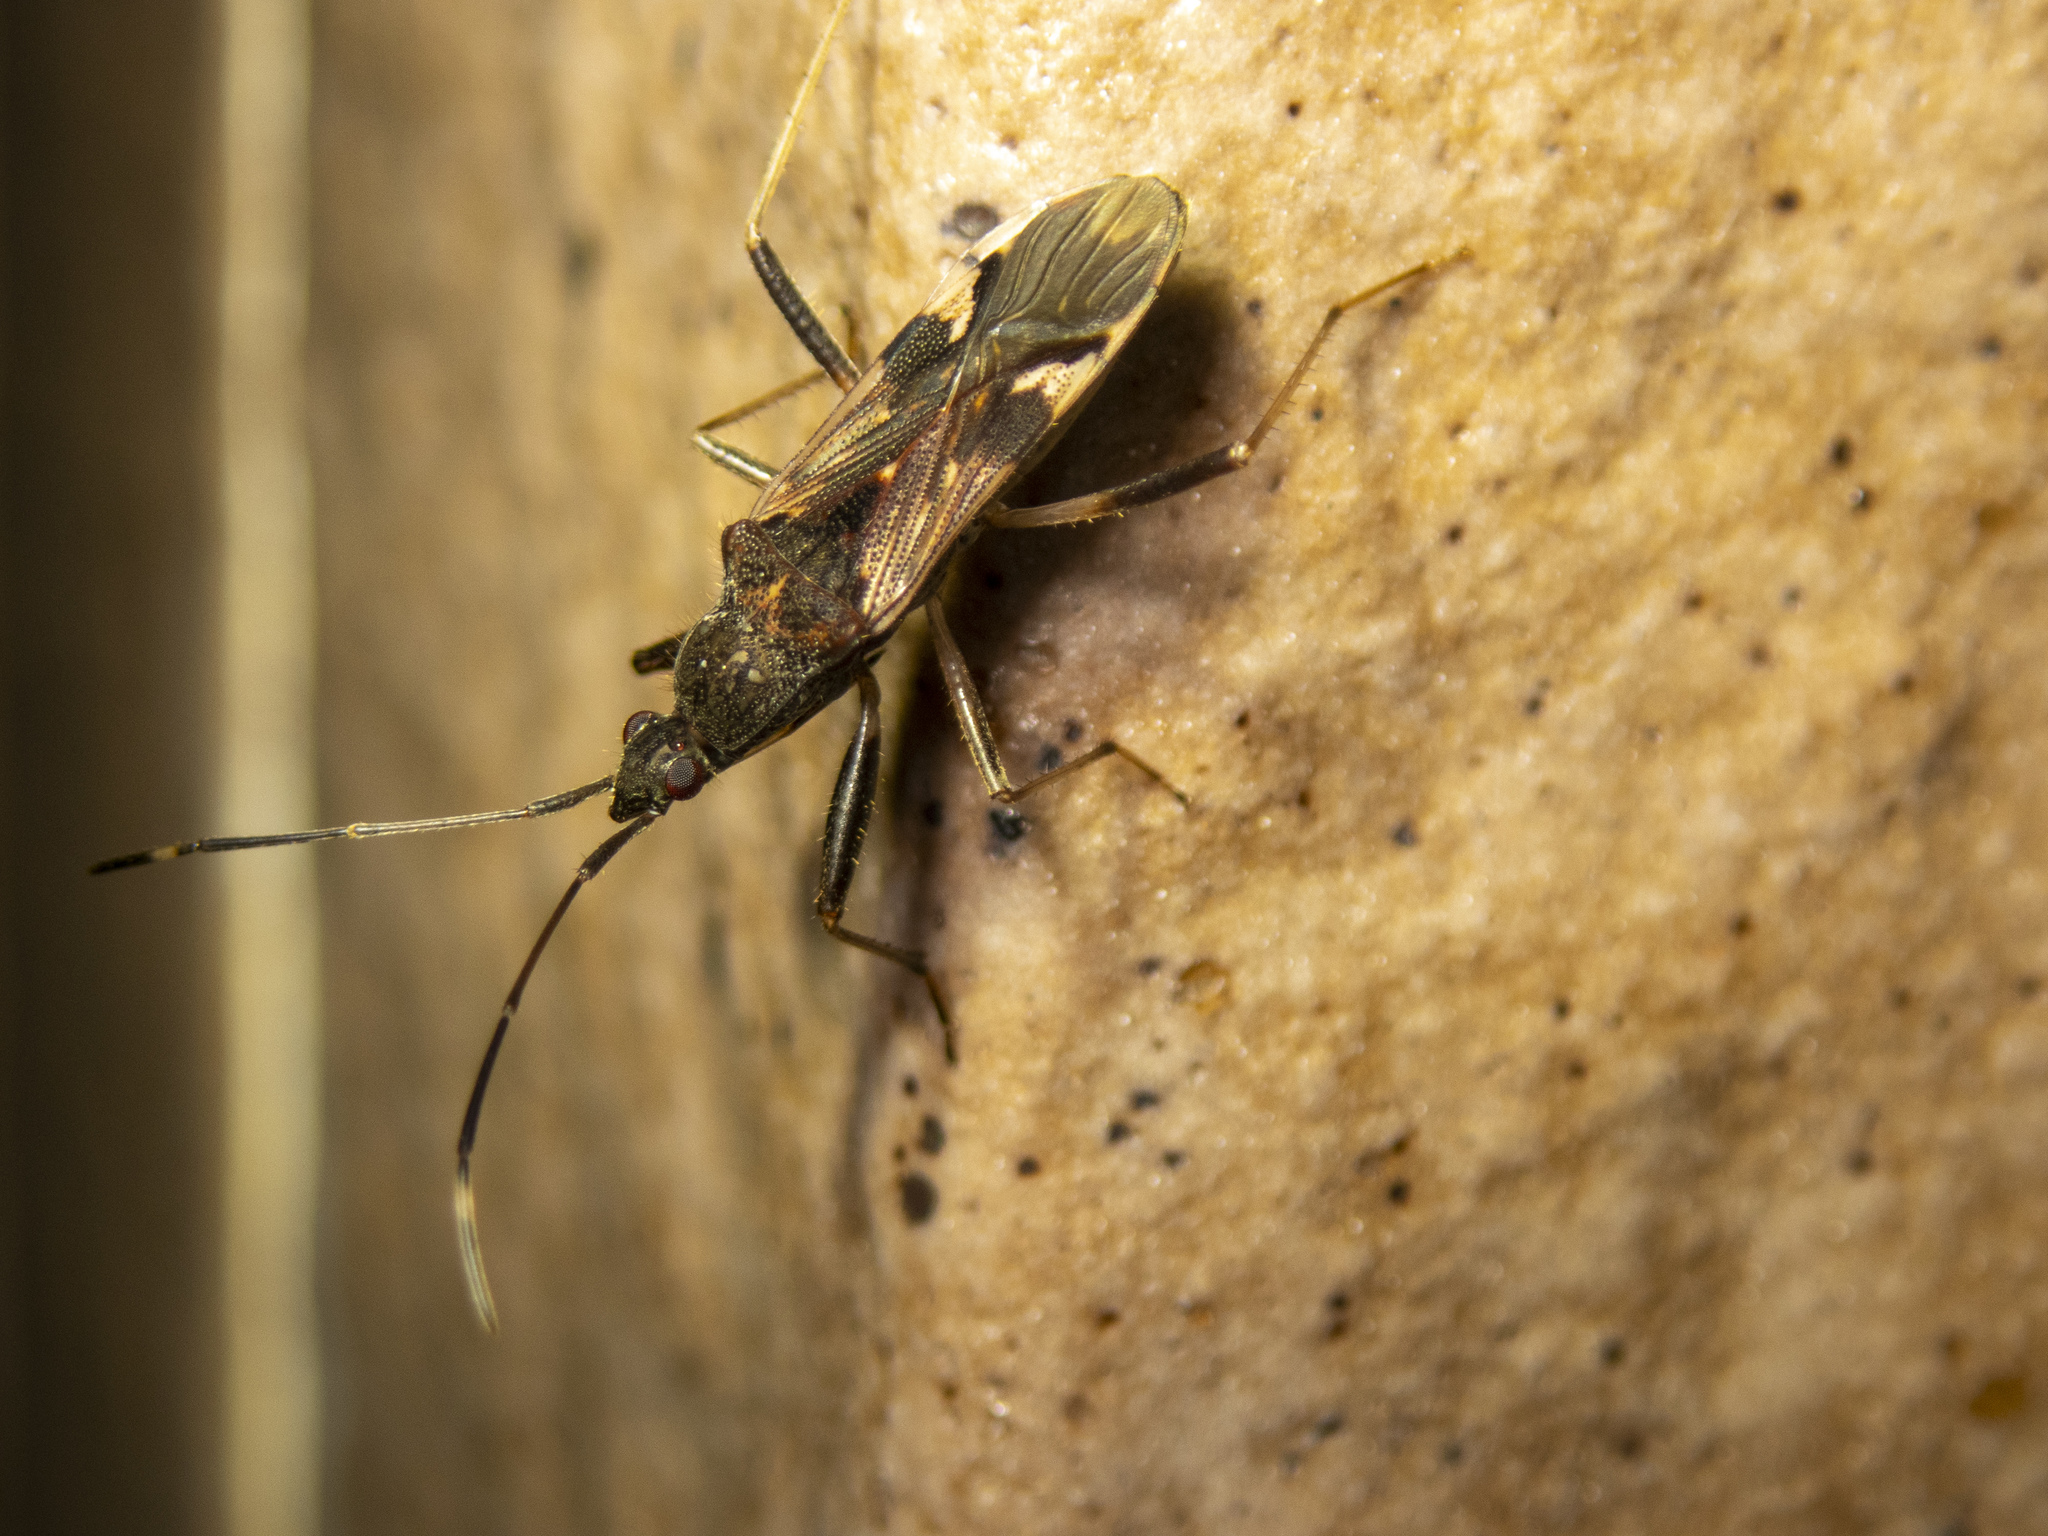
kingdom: Animalia
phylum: Arthropoda
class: Insecta
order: Hemiptera
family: Rhyparochromidae
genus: Metochus
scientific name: Metochus hainanensis
